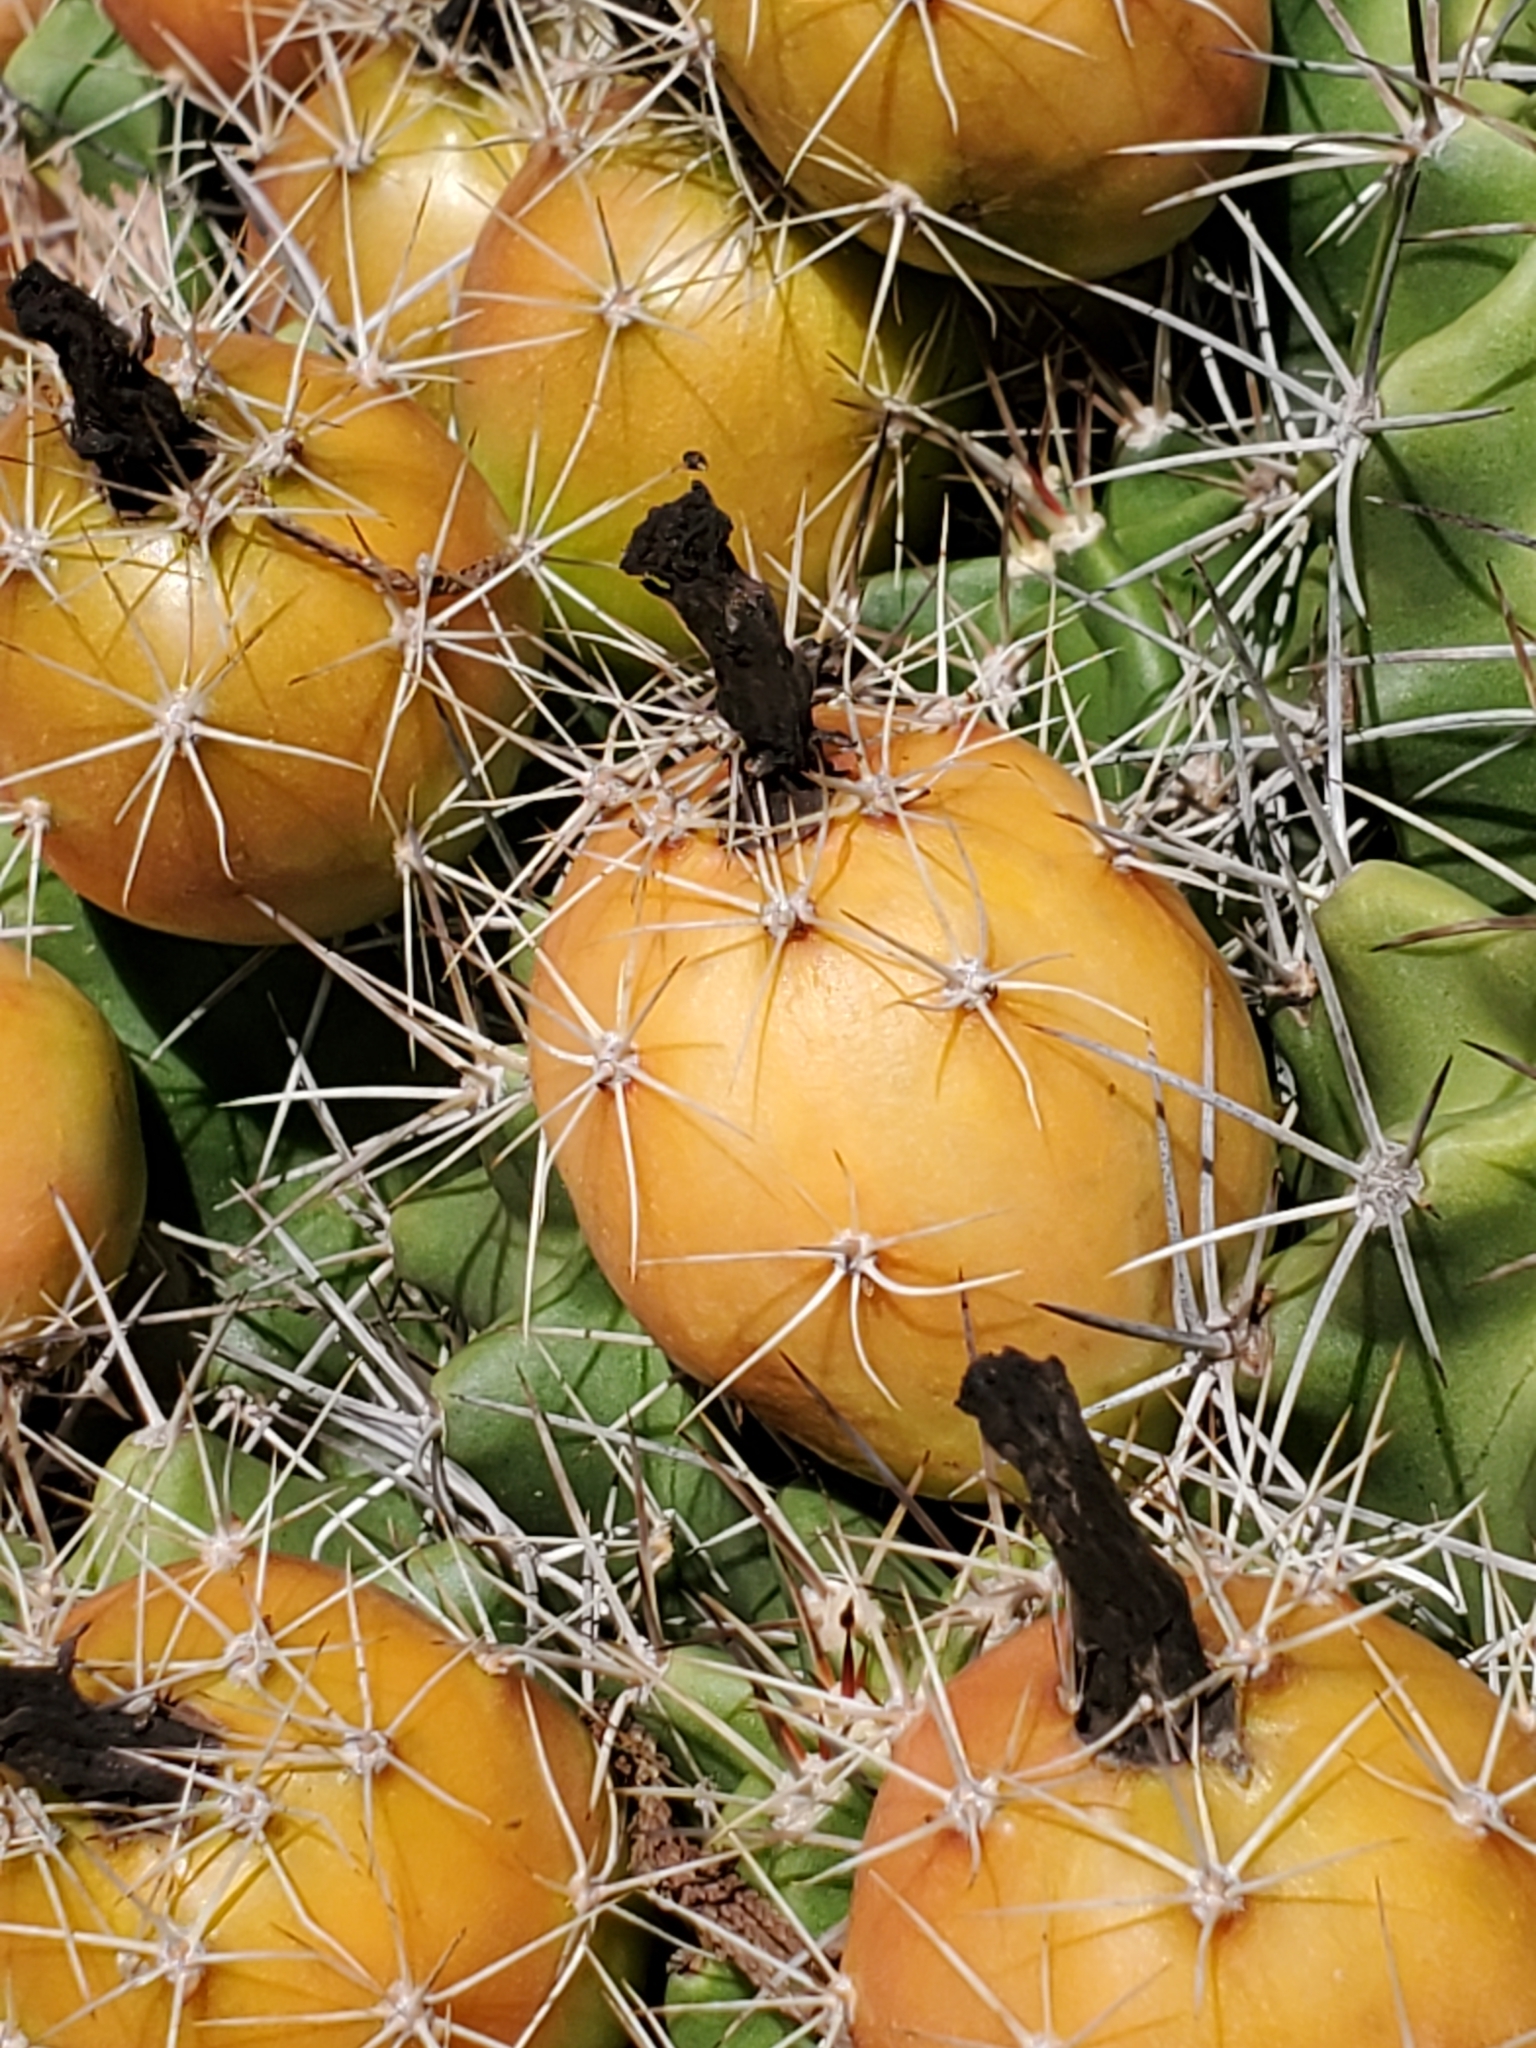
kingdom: Plantae
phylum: Tracheophyta
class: Magnoliopsida
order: Caryophyllales
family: Cactaceae
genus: Echinocereus
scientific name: Echinocereus coccineus
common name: Scarlet hedgehog cactus
